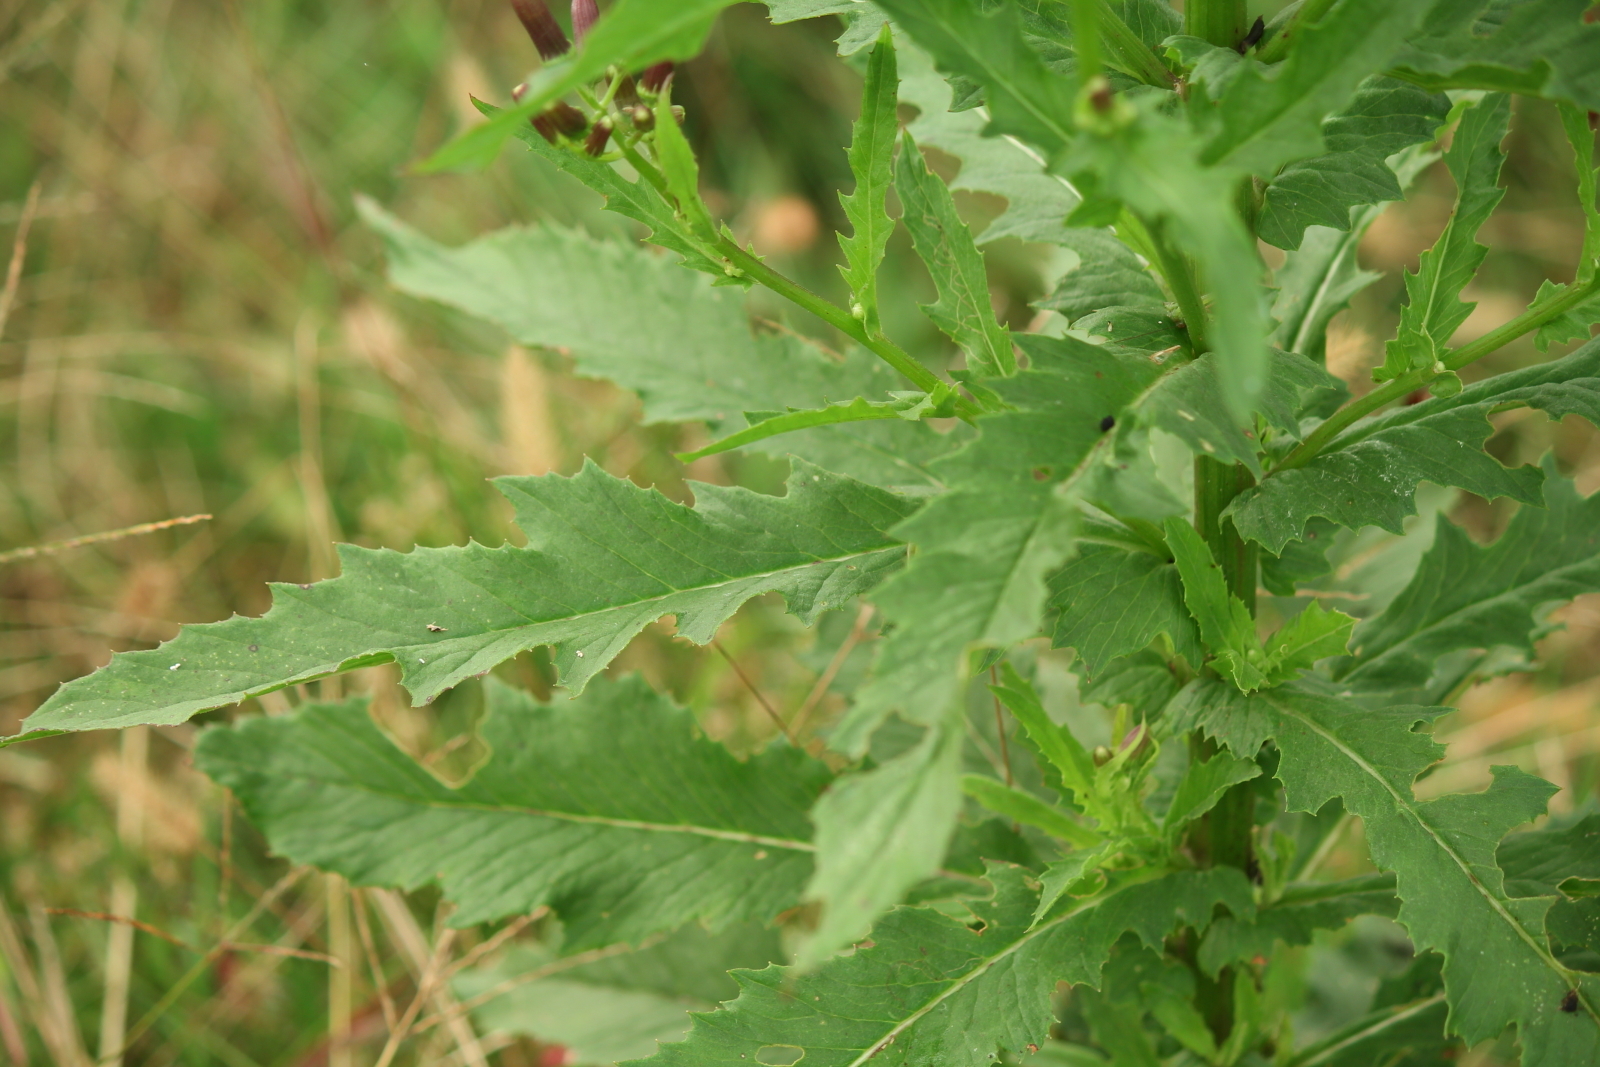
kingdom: Plantae
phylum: Tracheophyta
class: Magnoliopsida
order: Asterales
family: Asteraceae
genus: Erechtites
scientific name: Erechtites hieraciifolius
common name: American burnweed
